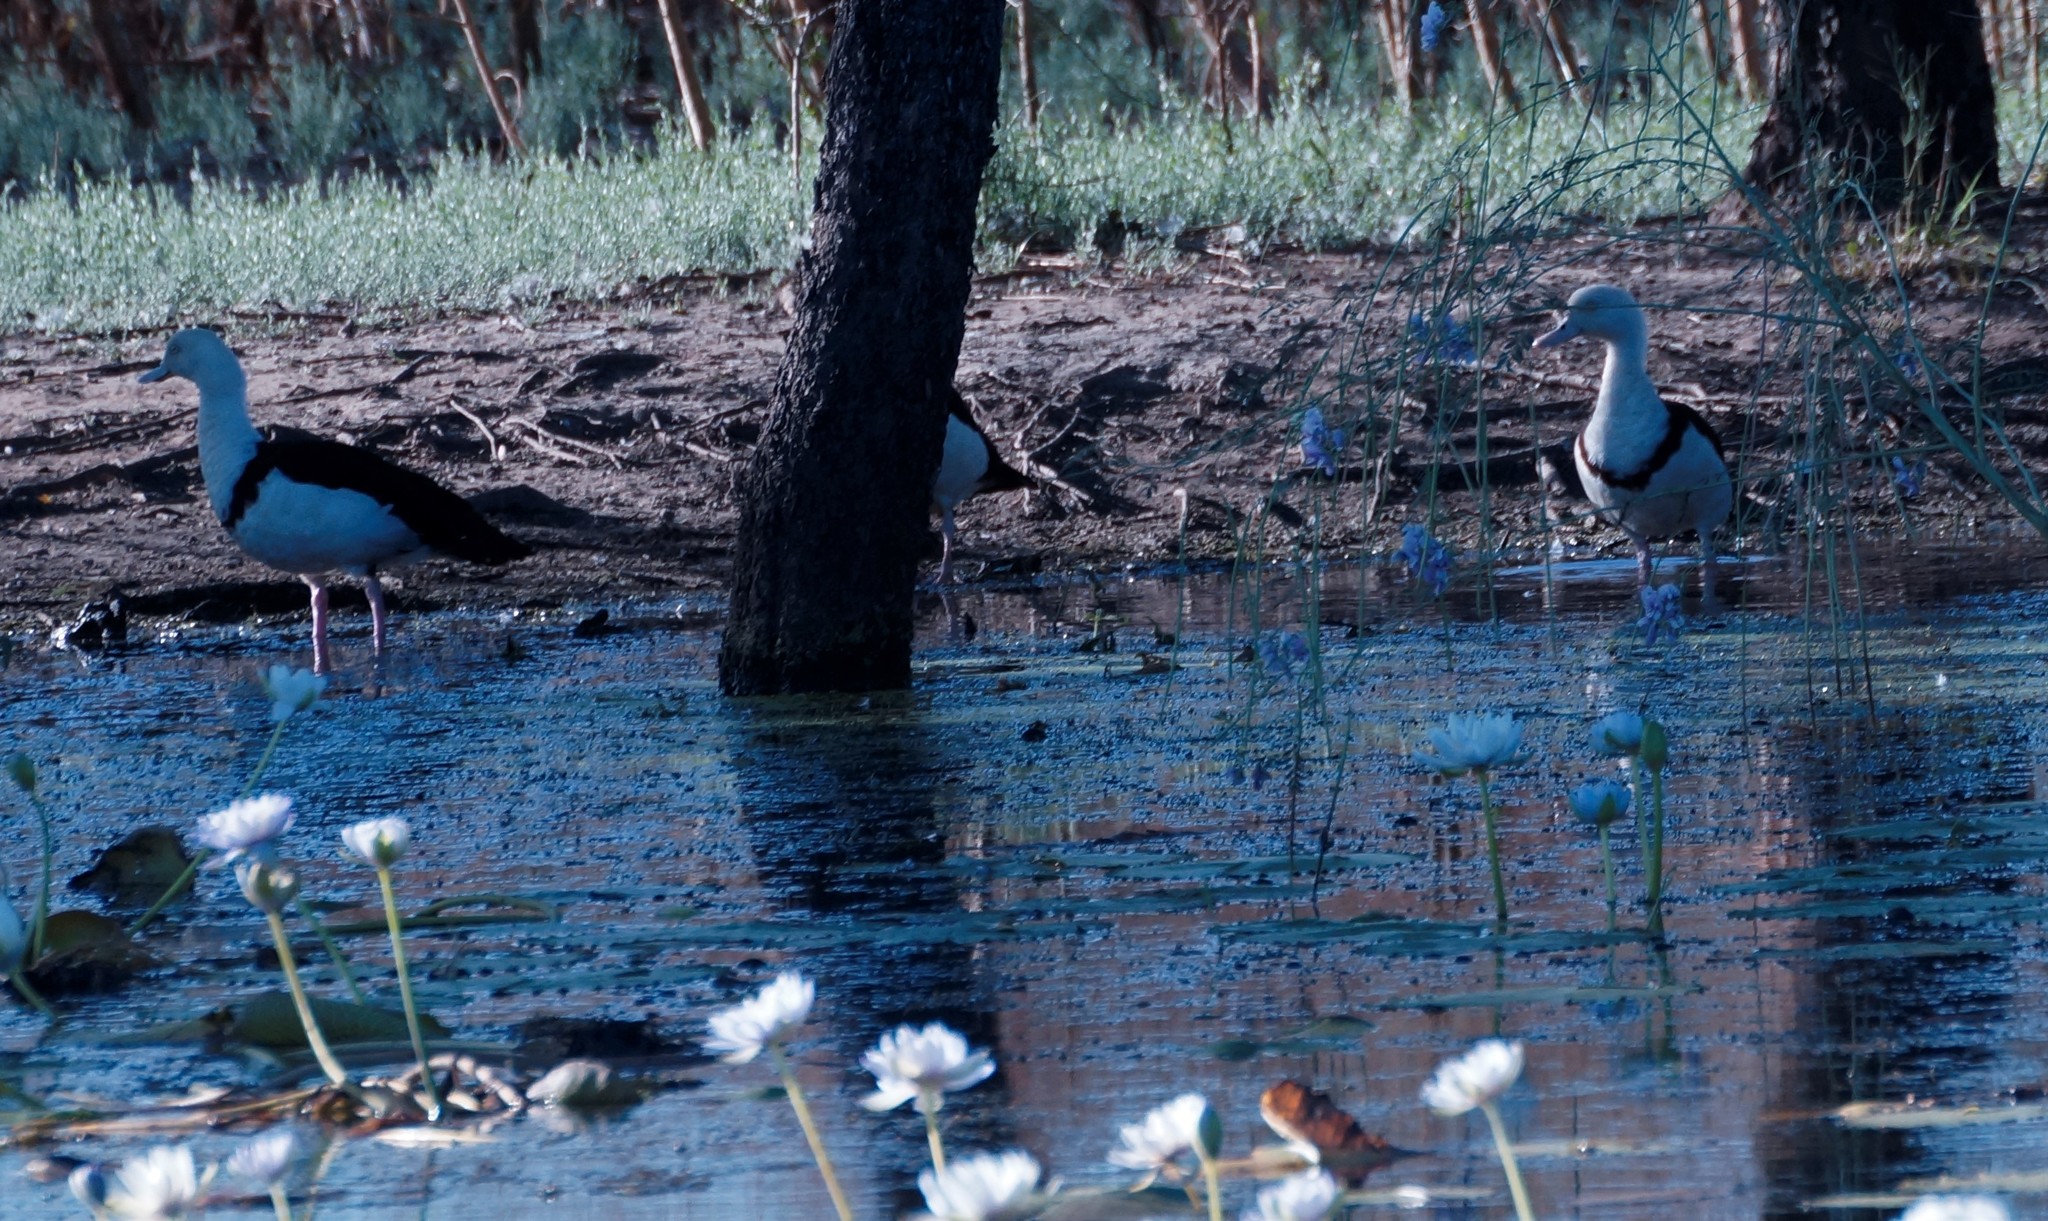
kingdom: Animalia
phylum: Chordata
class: Aves
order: Anseriformes
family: Anatidae
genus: Radjah
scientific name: Radjah radjah
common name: Radjah shelduck
